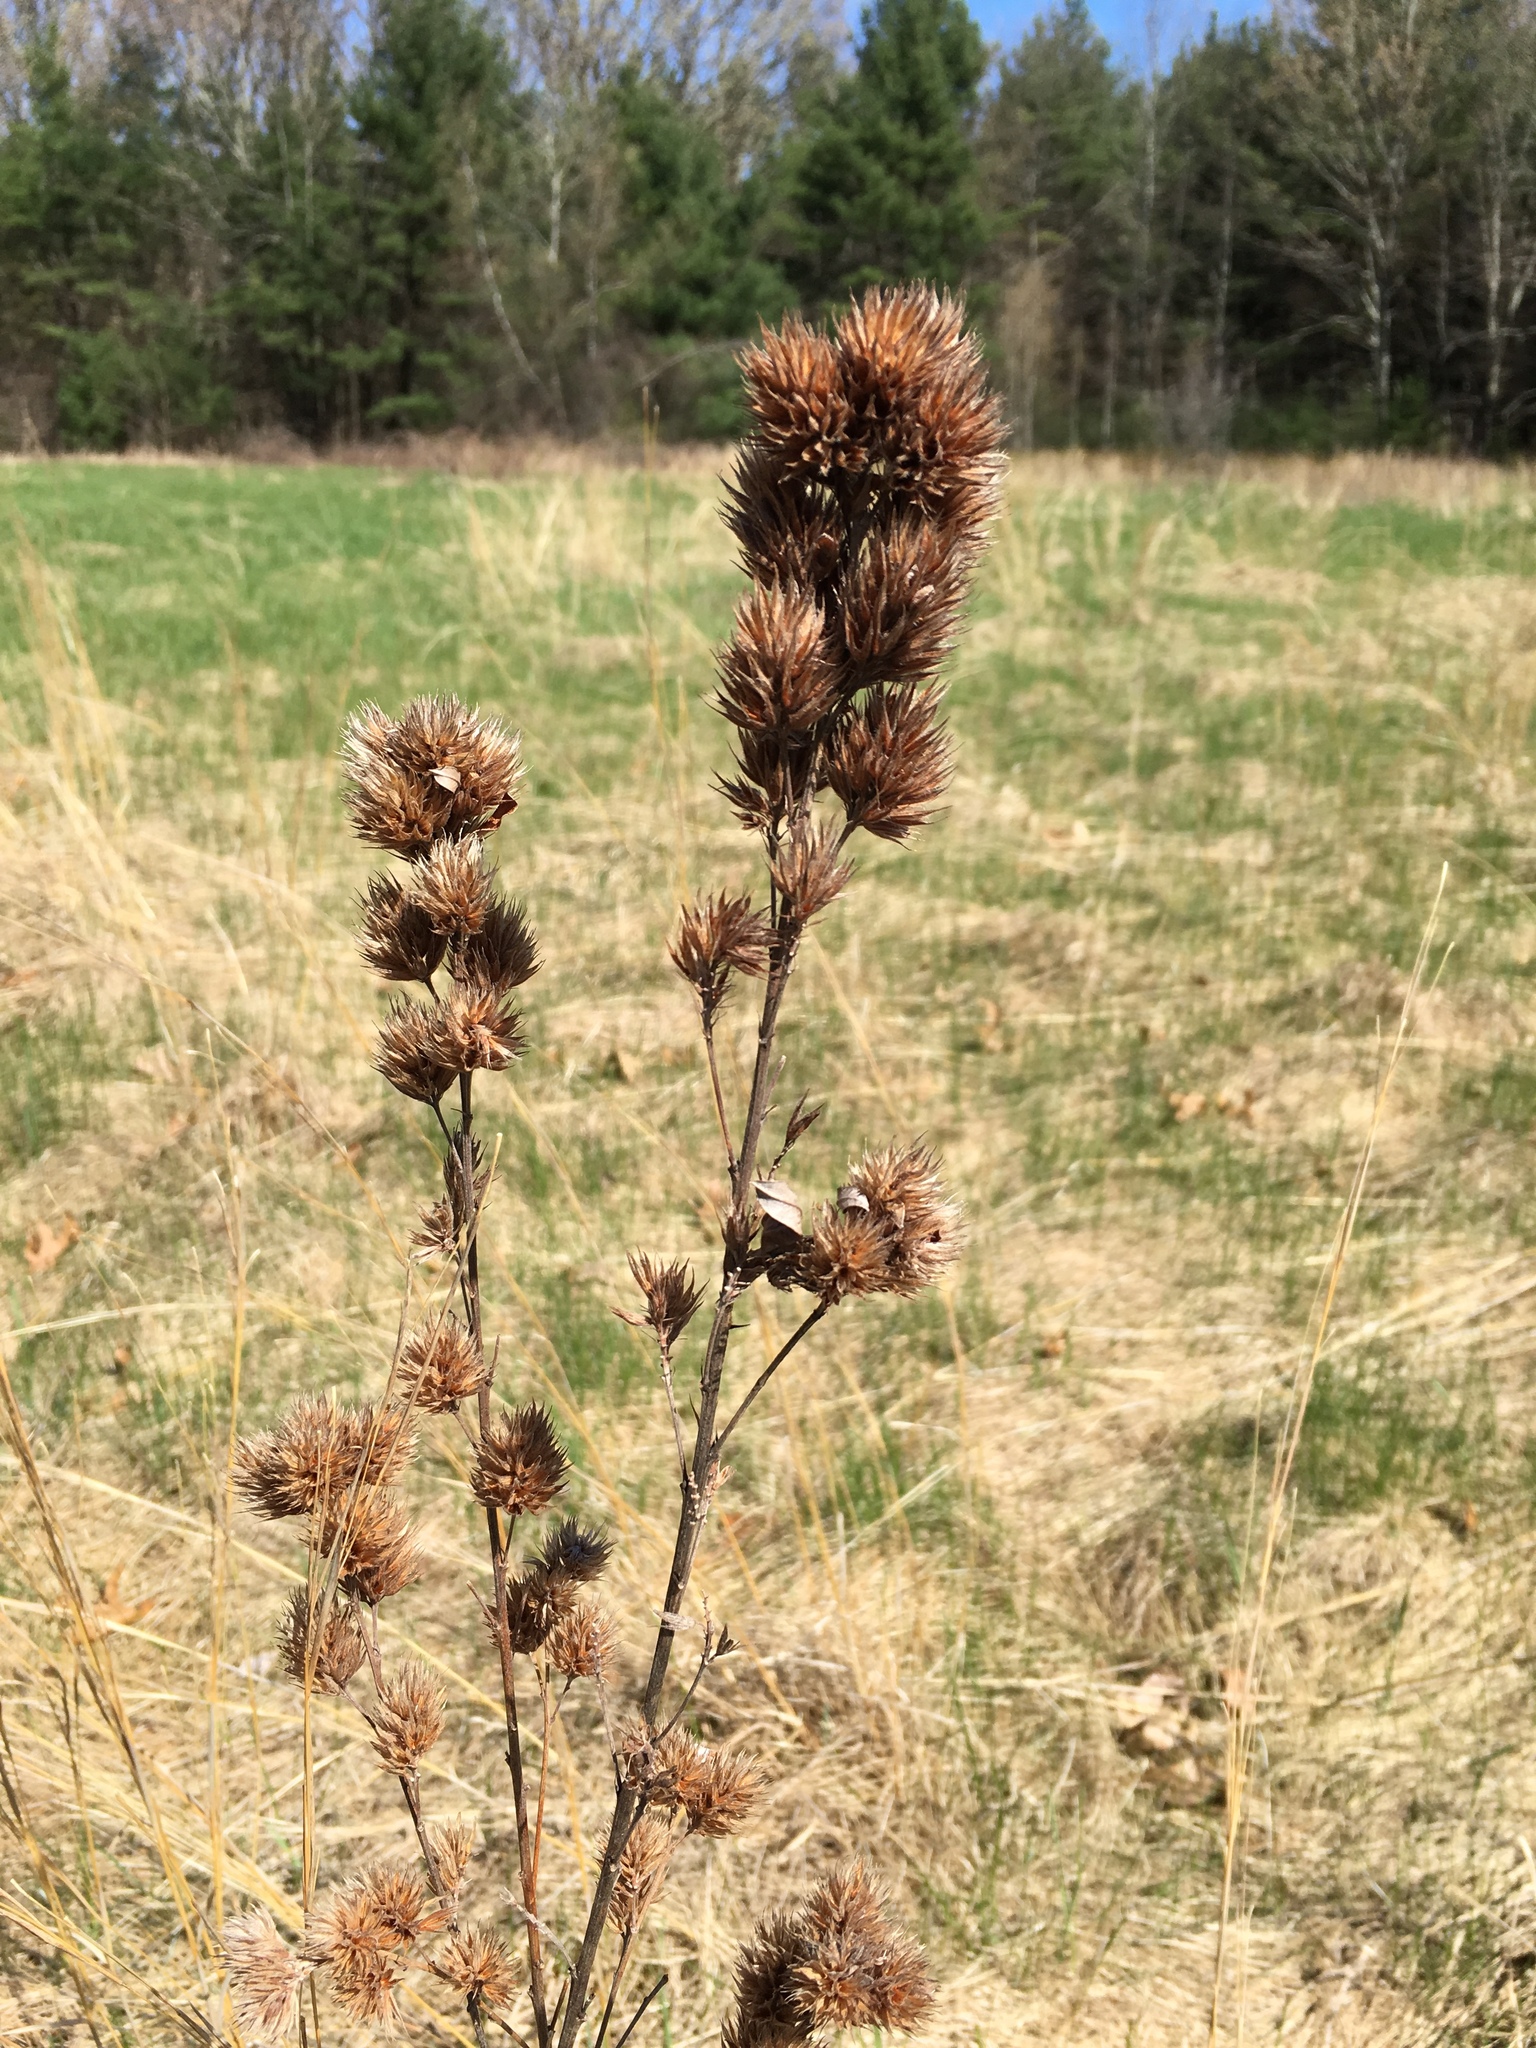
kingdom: Plantae
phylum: Tracheophyta
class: Magnoliopsida
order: Fabales
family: Fabaceae
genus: Lespedeza
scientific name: Lespedeza capitata
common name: Dusty clover
